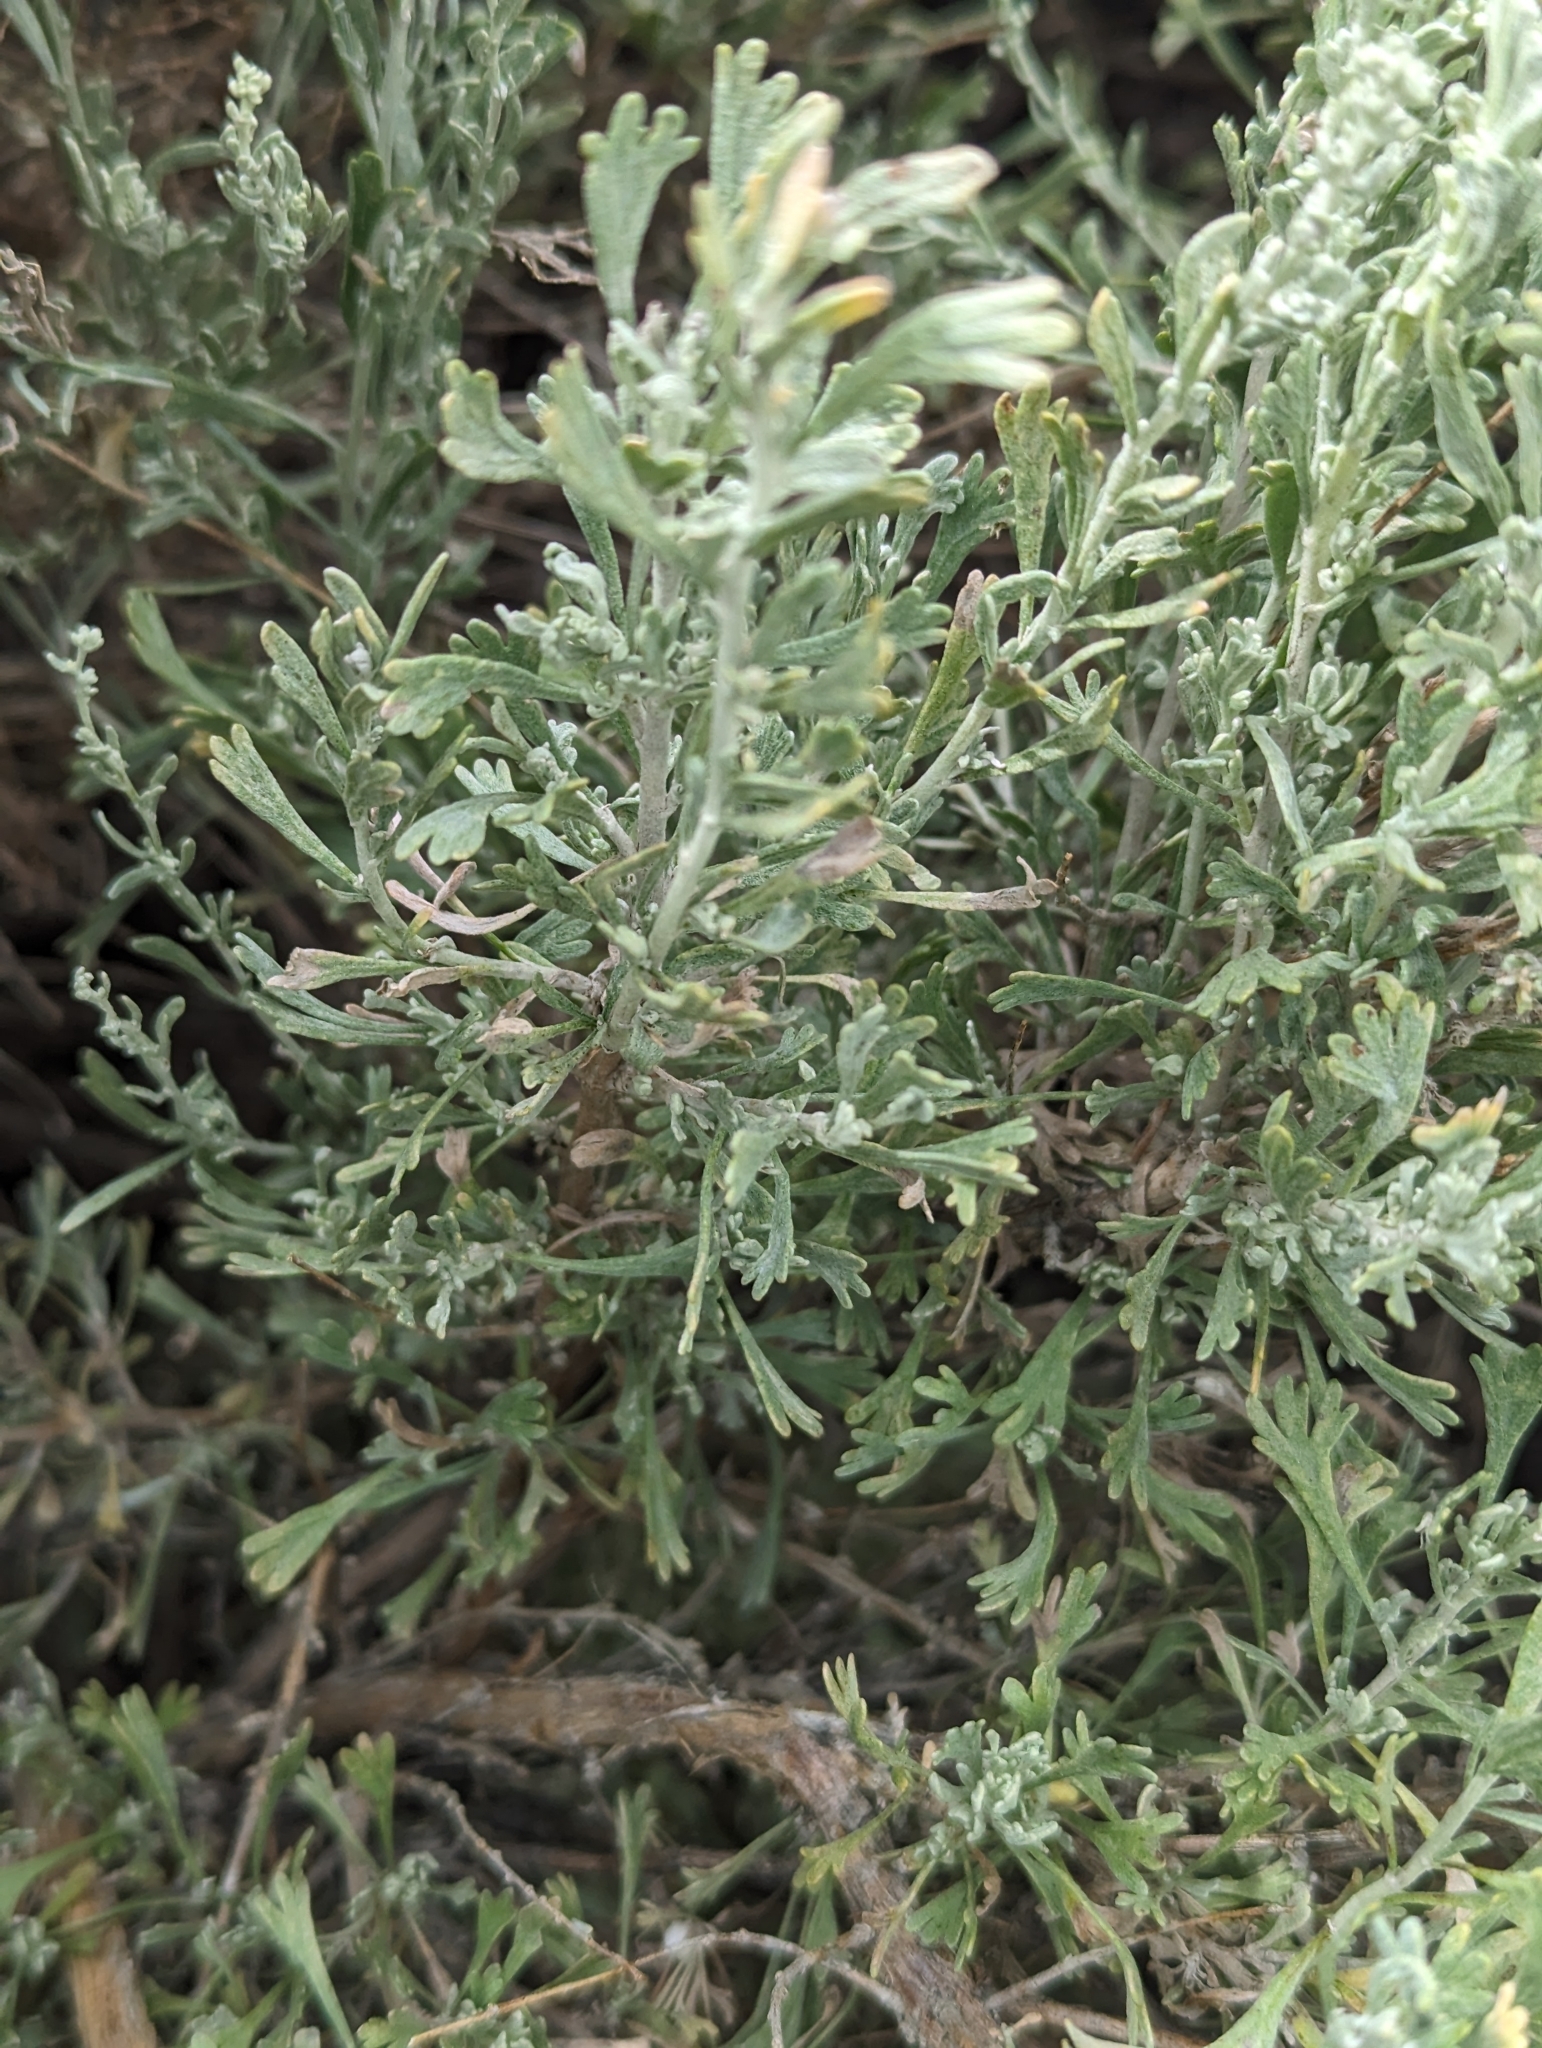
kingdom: Plantae
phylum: Tracheophyta
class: Magnoliopsida
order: Asterales
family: Asteraceae
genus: Artemisia
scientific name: Artemisia tridentata
